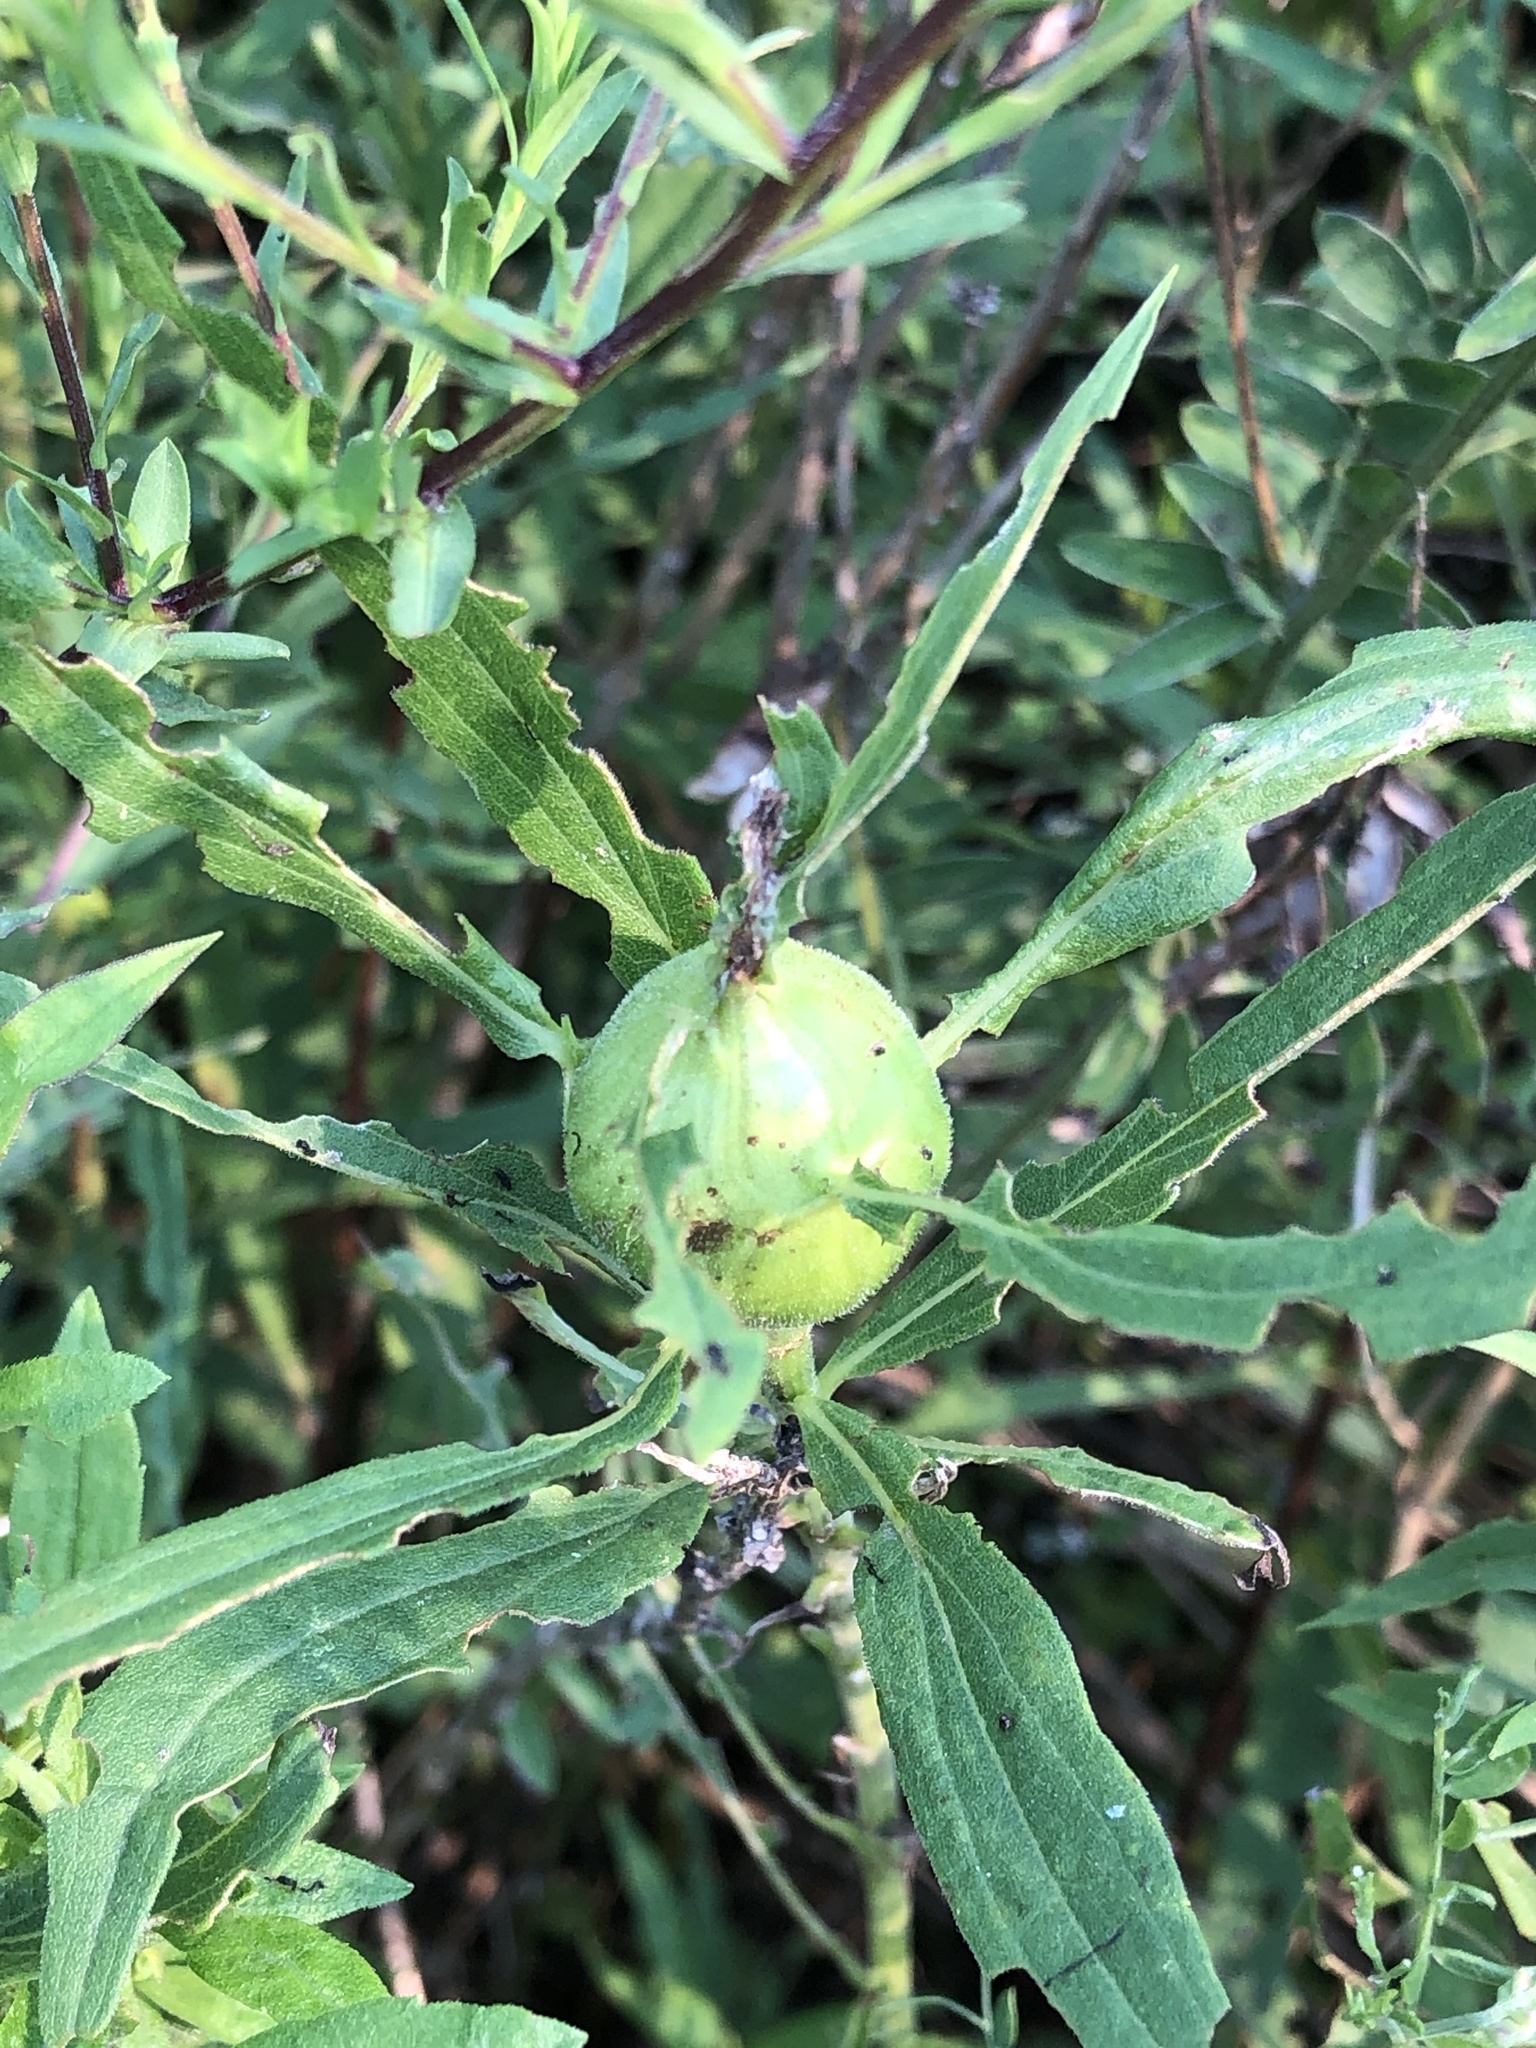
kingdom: Animalia
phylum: Arthropoda
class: Insecta
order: Diptera
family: Tephritidae
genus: Eurosta
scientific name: Eurosta solidaginis
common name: Goldenrod gall fly
